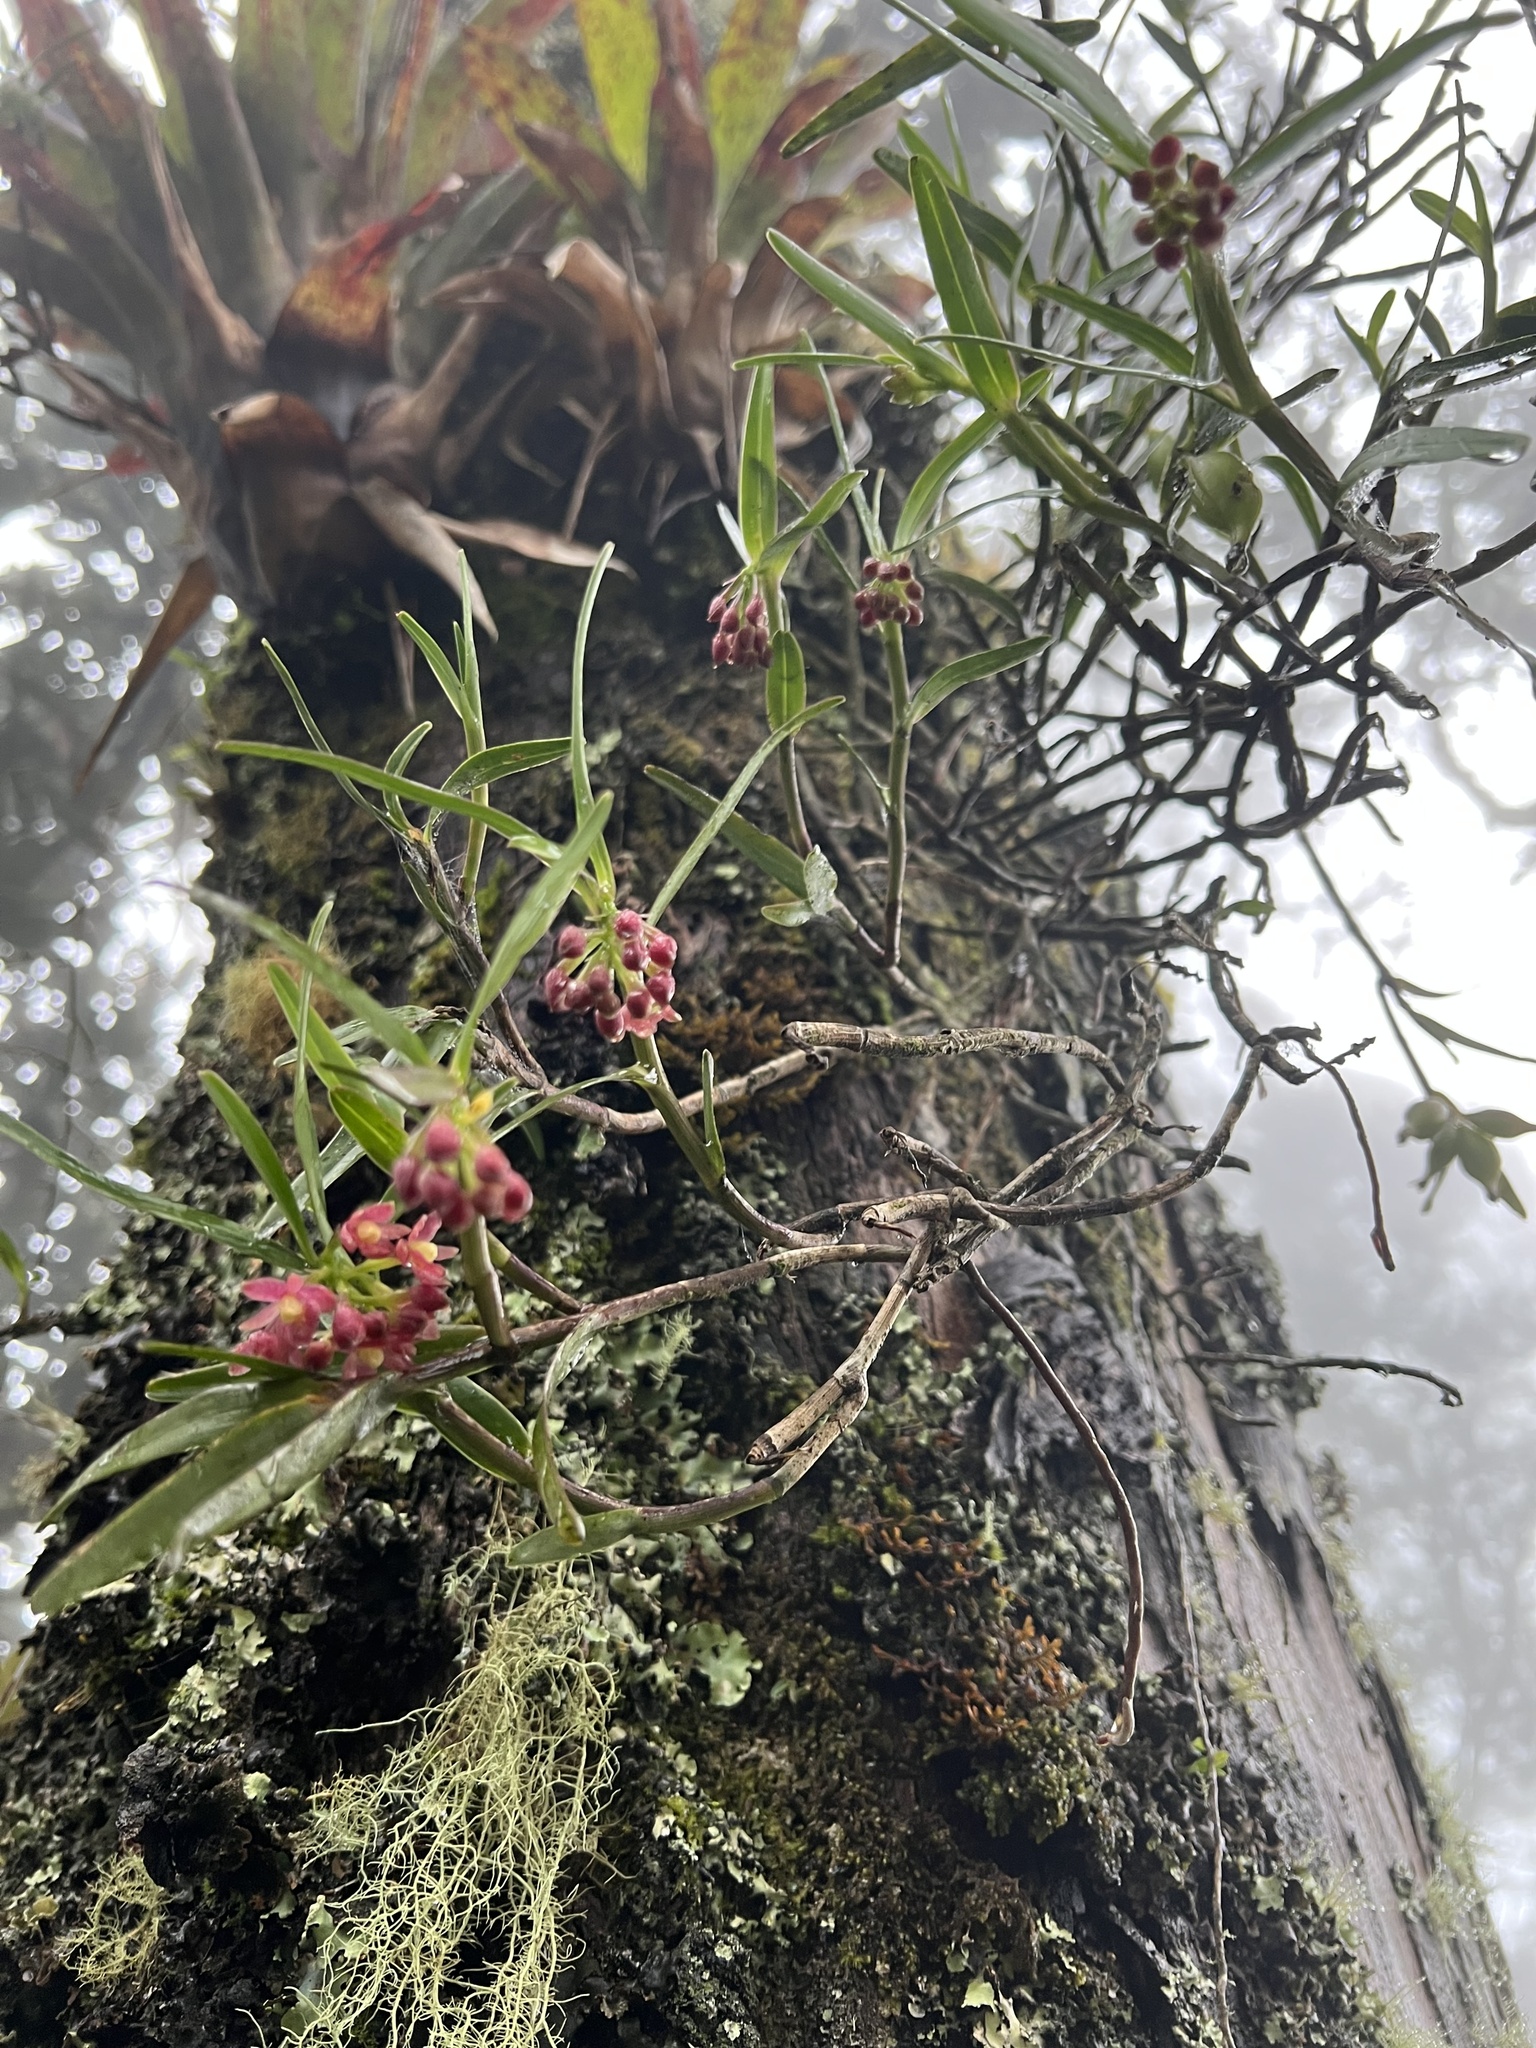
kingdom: Plantae
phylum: Tracheophyta
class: Liliopsida
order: Asparagales
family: Orchidaceae
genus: Epidendrum
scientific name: Epidendrum oxysepalum
